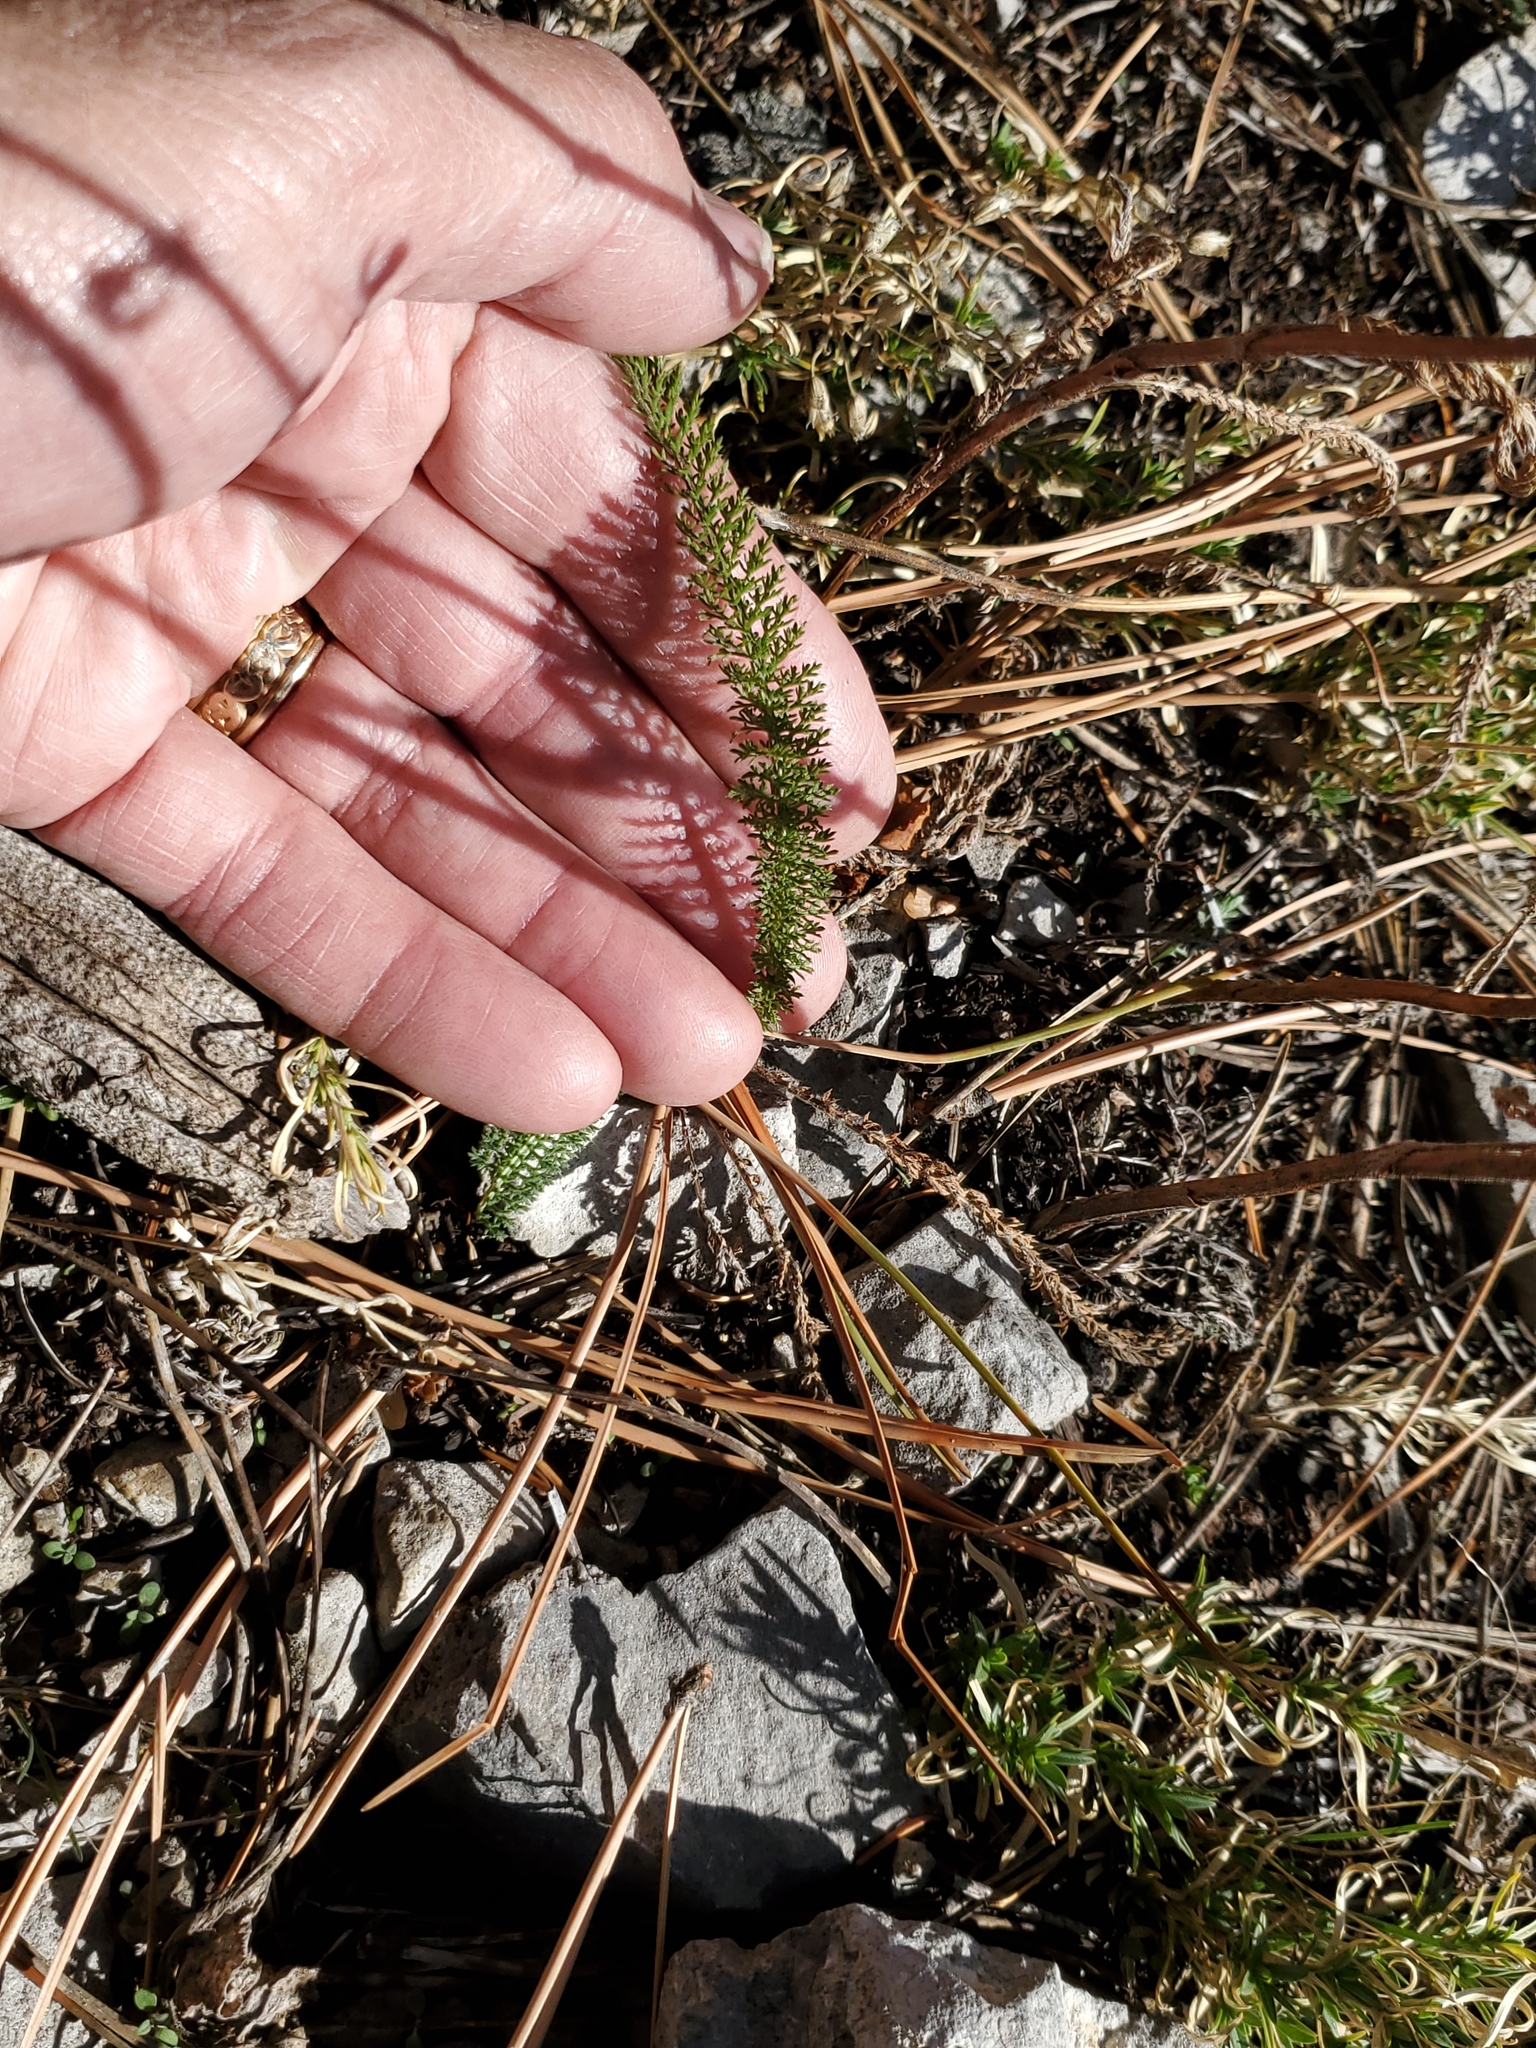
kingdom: Plantae
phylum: Tracheophyta
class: Magnoliopsida
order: Asterales
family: Asteraceae
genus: Achillea
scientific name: Achillea millefolium
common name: Yarrow
